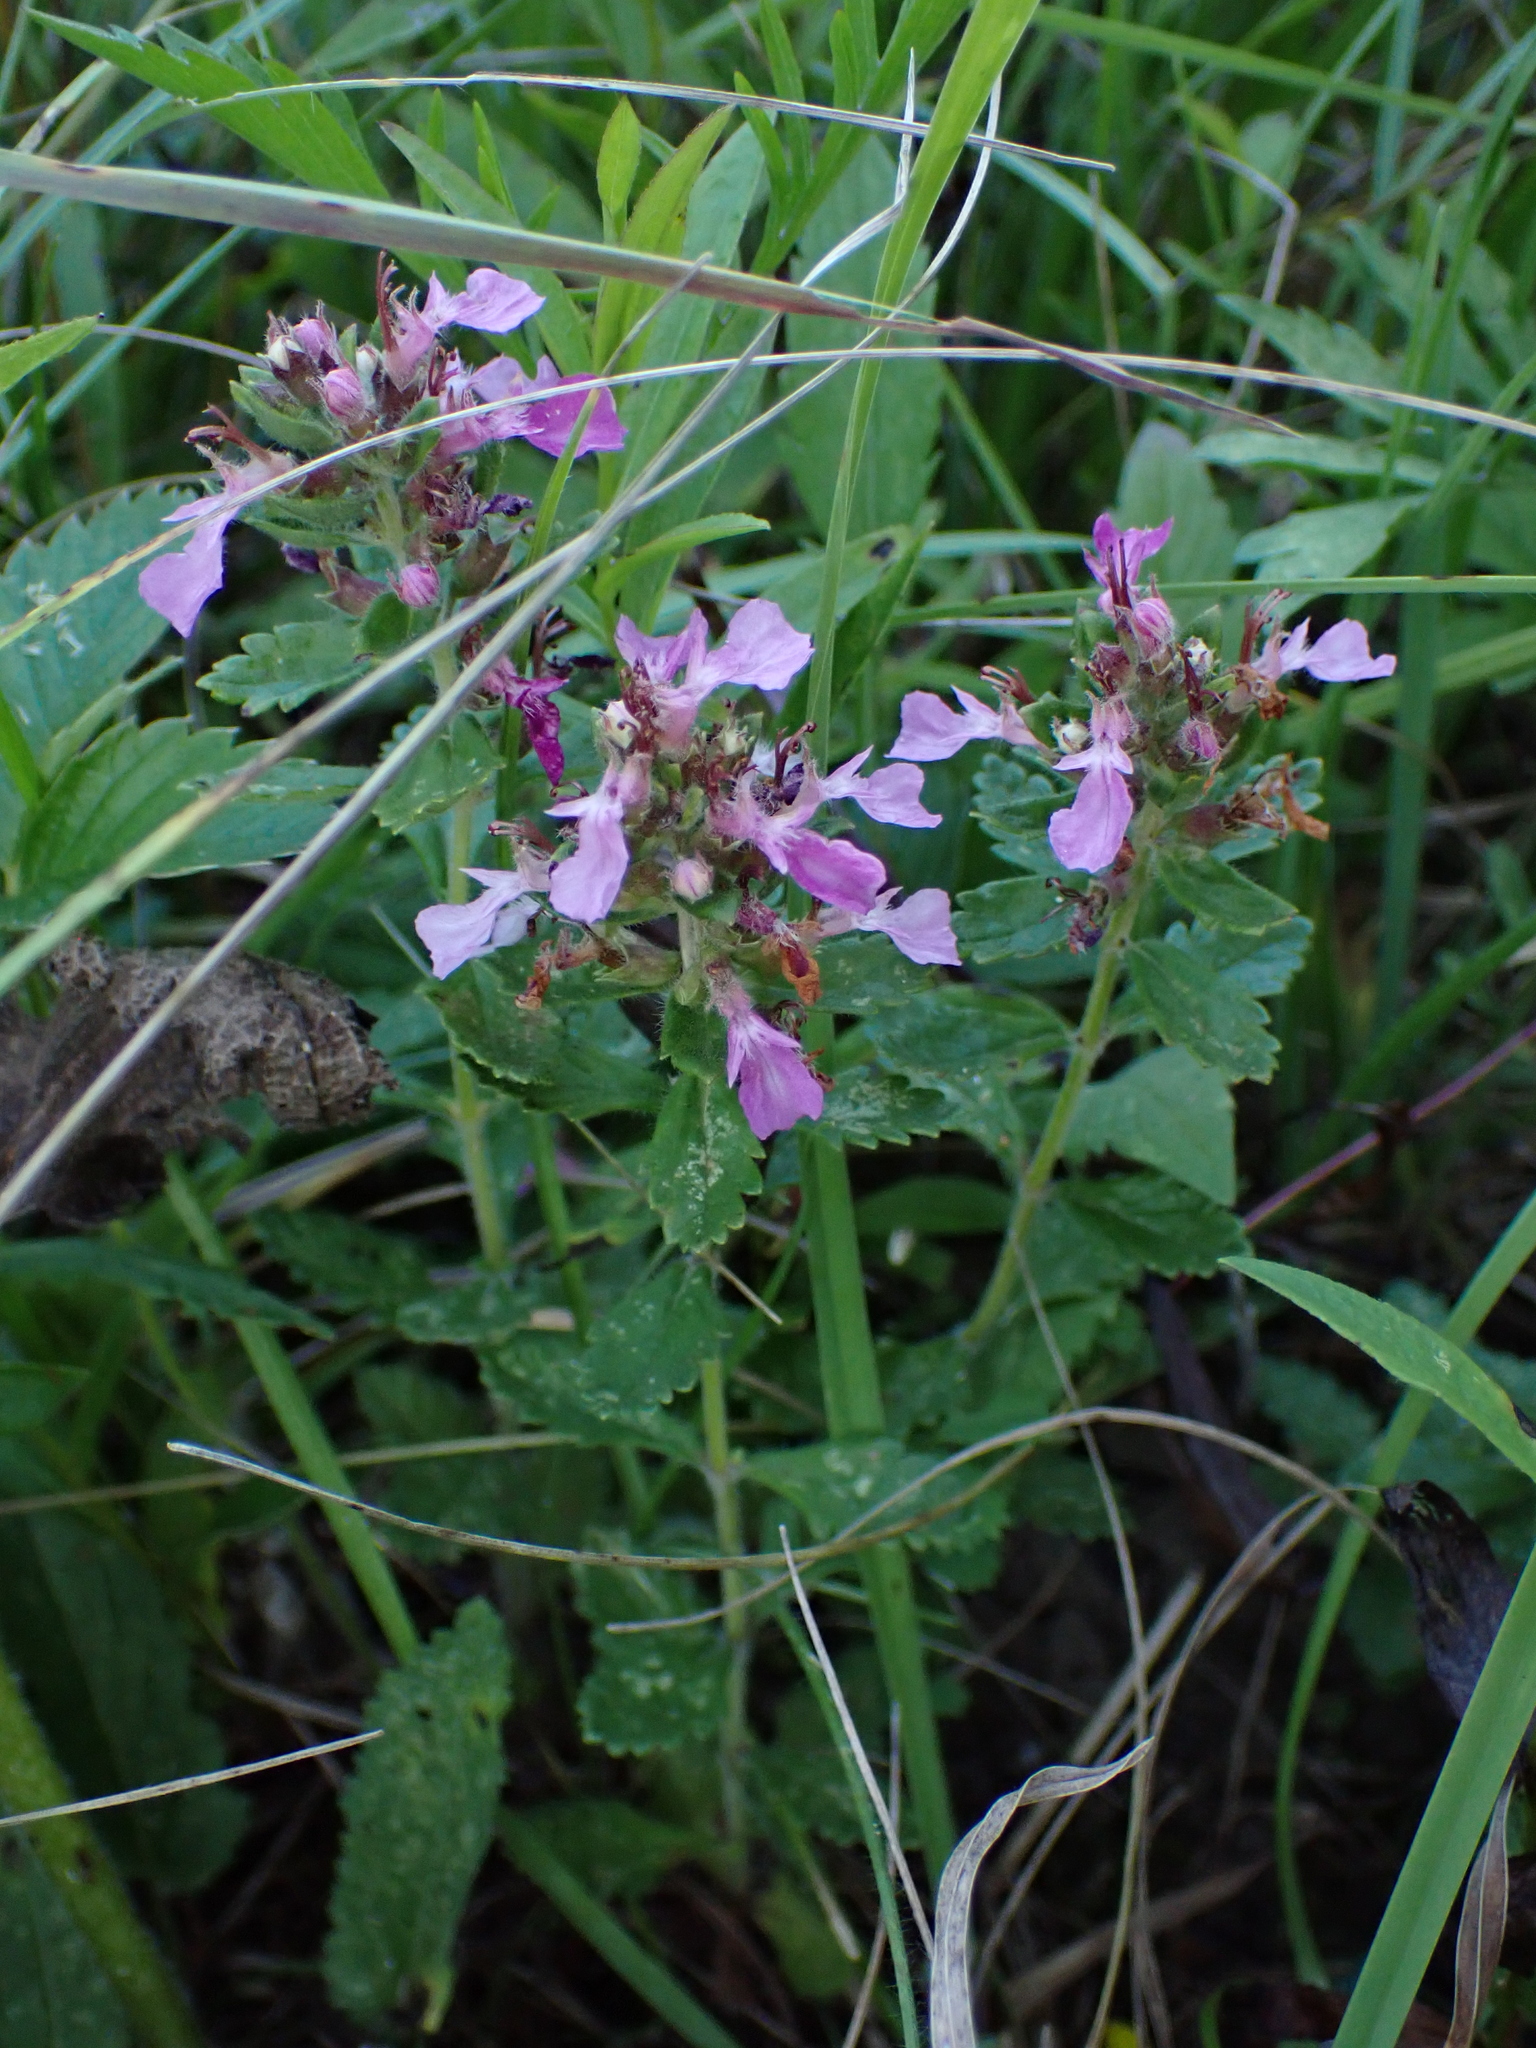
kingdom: Plantae
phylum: Tracheophyta
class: Magnoliopsida
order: Lamiales
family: Lamiaceae
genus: Teucrium
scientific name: Teucrium chamaedrys
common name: Wall germander
